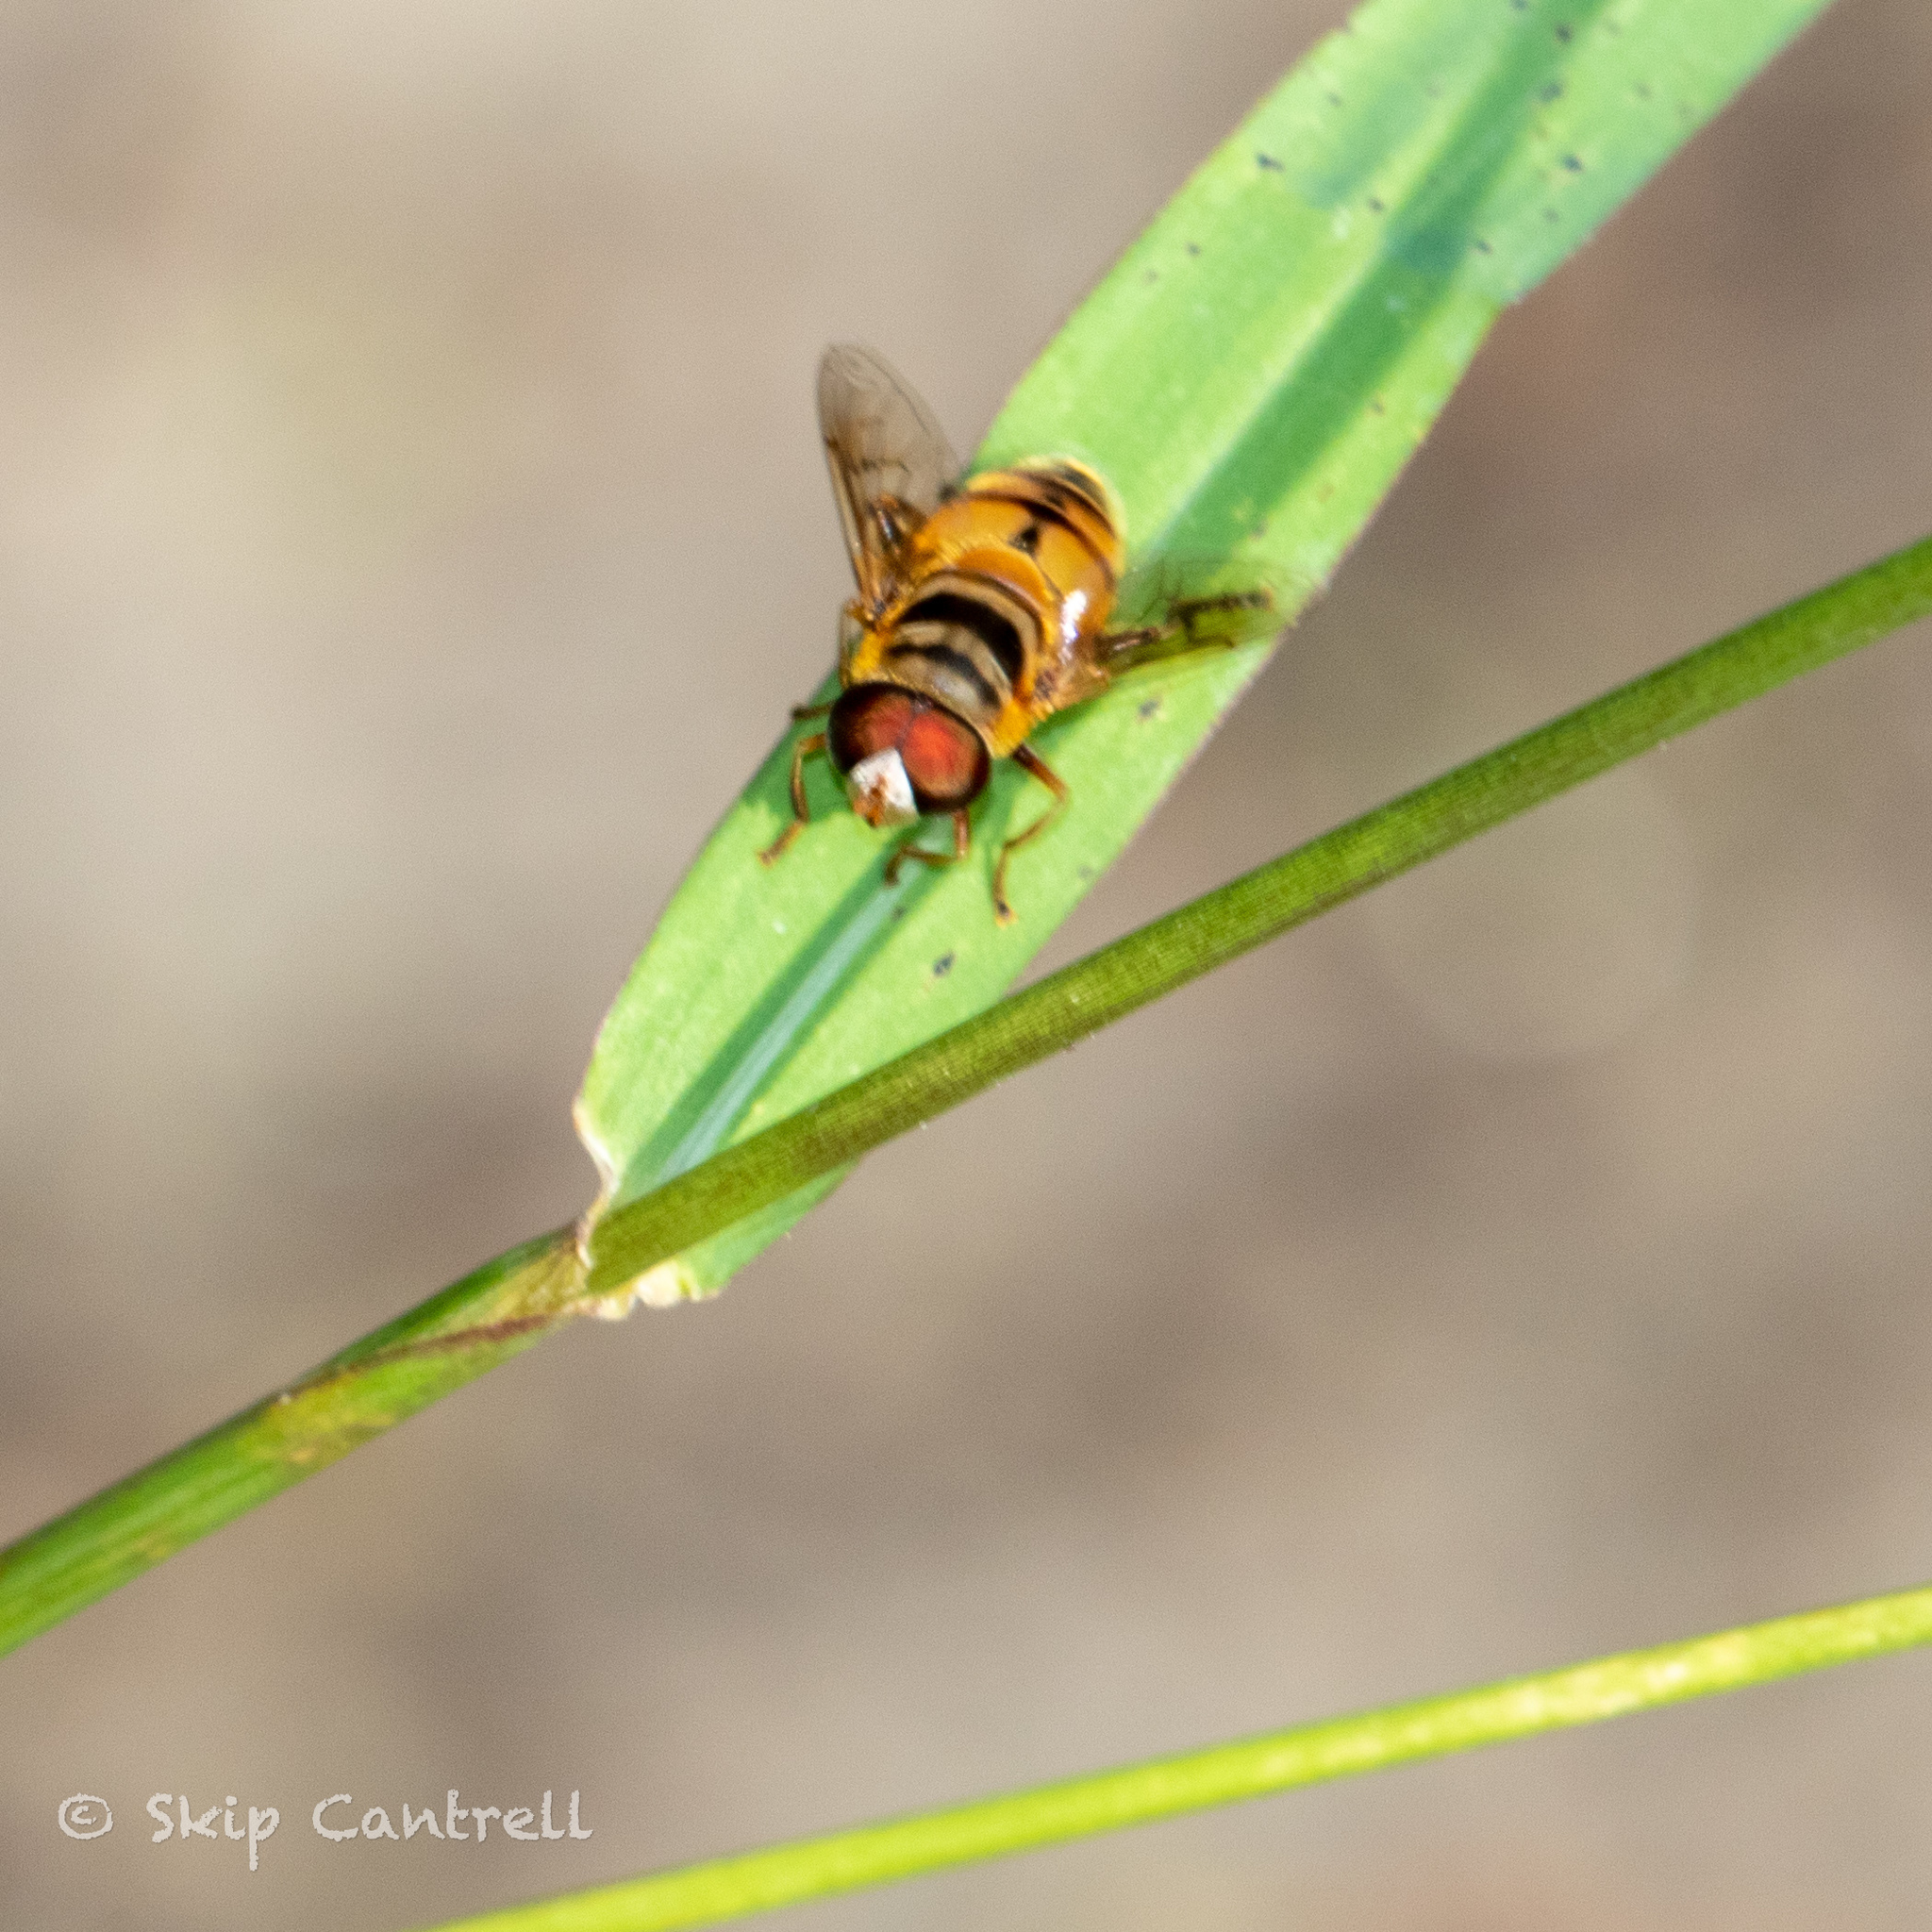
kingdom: Animalia
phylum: Arthropoda
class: Insecta
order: Diptera
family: Syrphidae
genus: Palpada
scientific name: Palpada vinetorum
